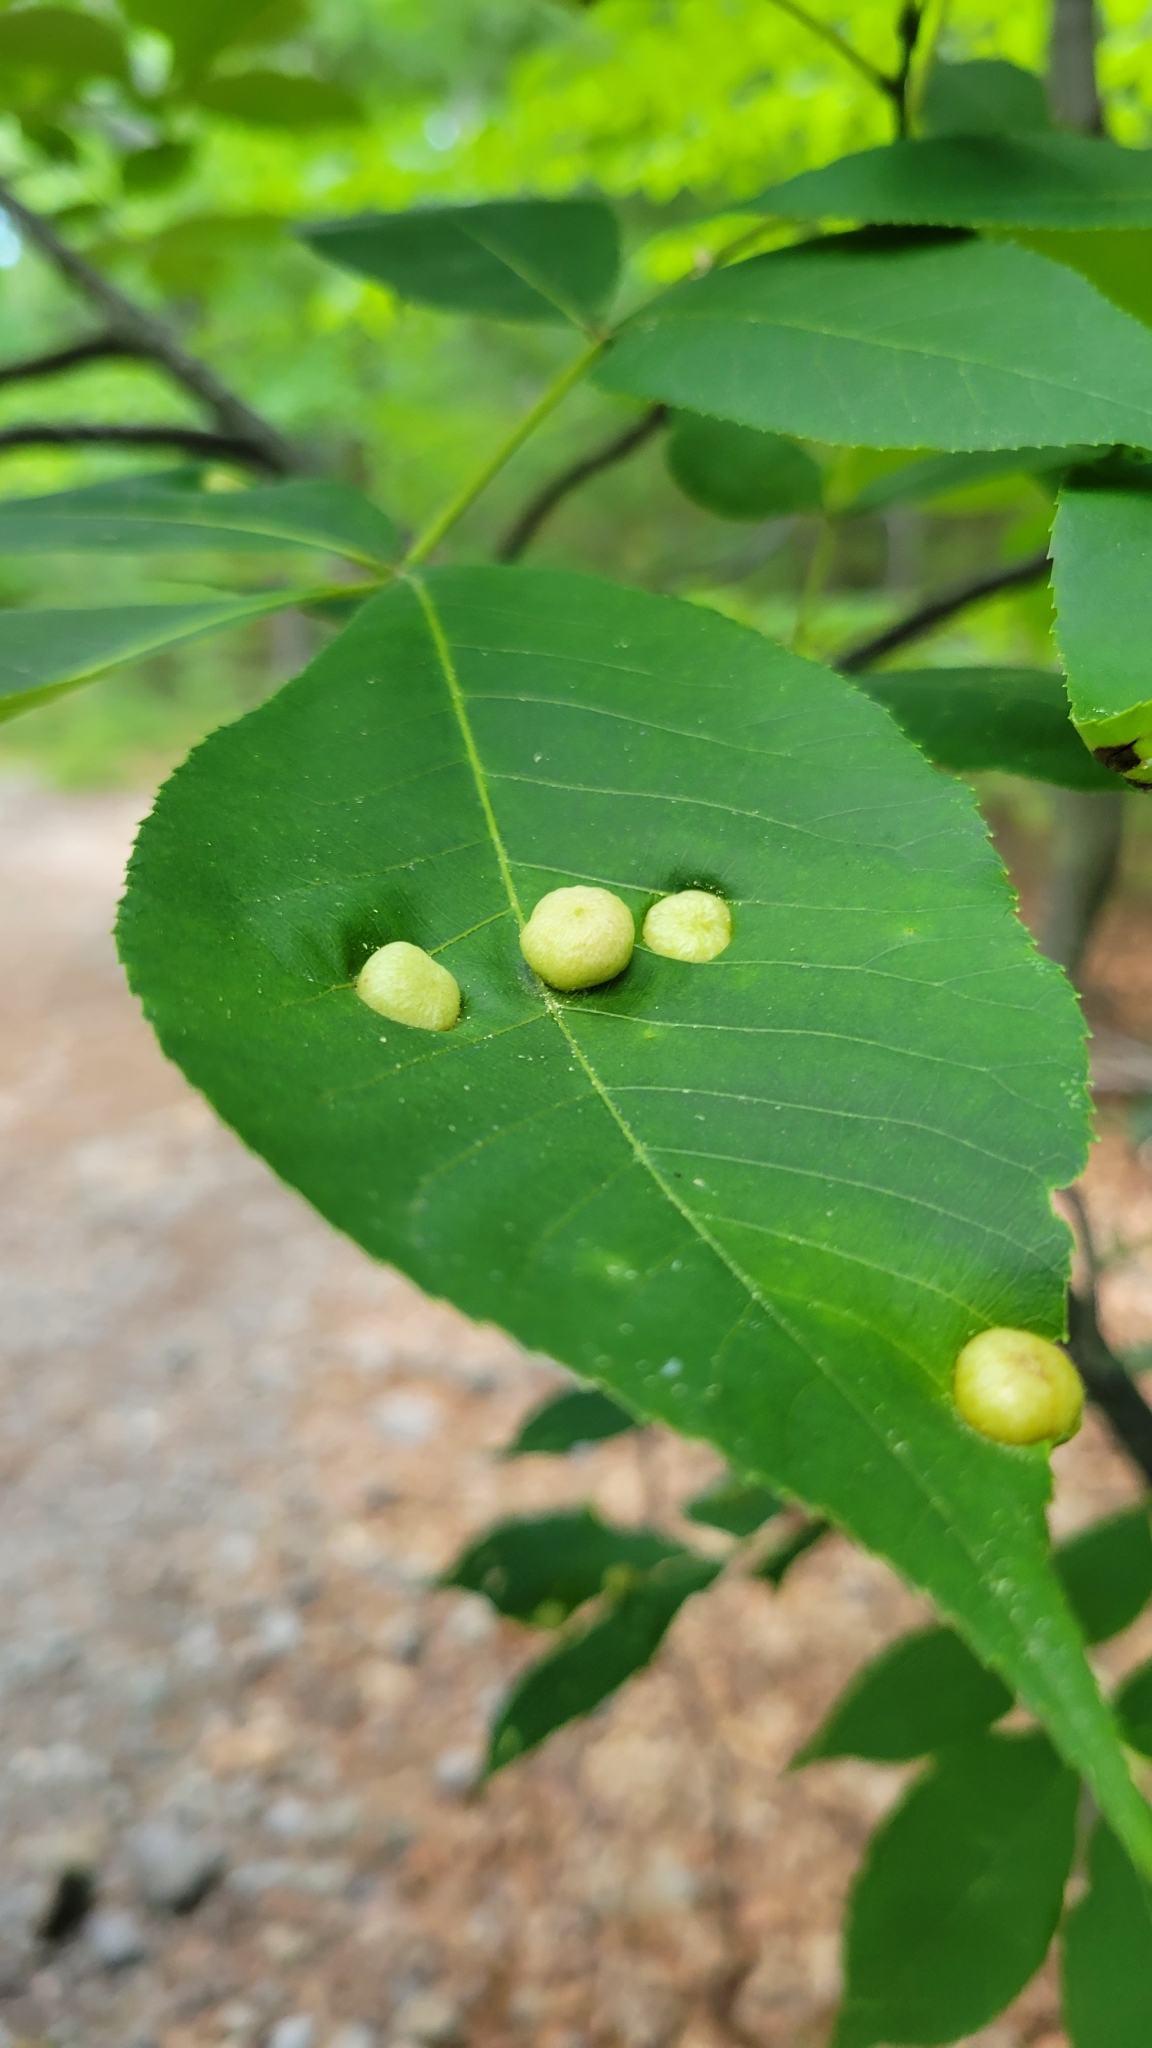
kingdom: Animalia
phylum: Arthropoda
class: Insecta
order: Hemiptera
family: Phylloxeridae
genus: Daktulosphaira
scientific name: Daktulosphaira conicum
